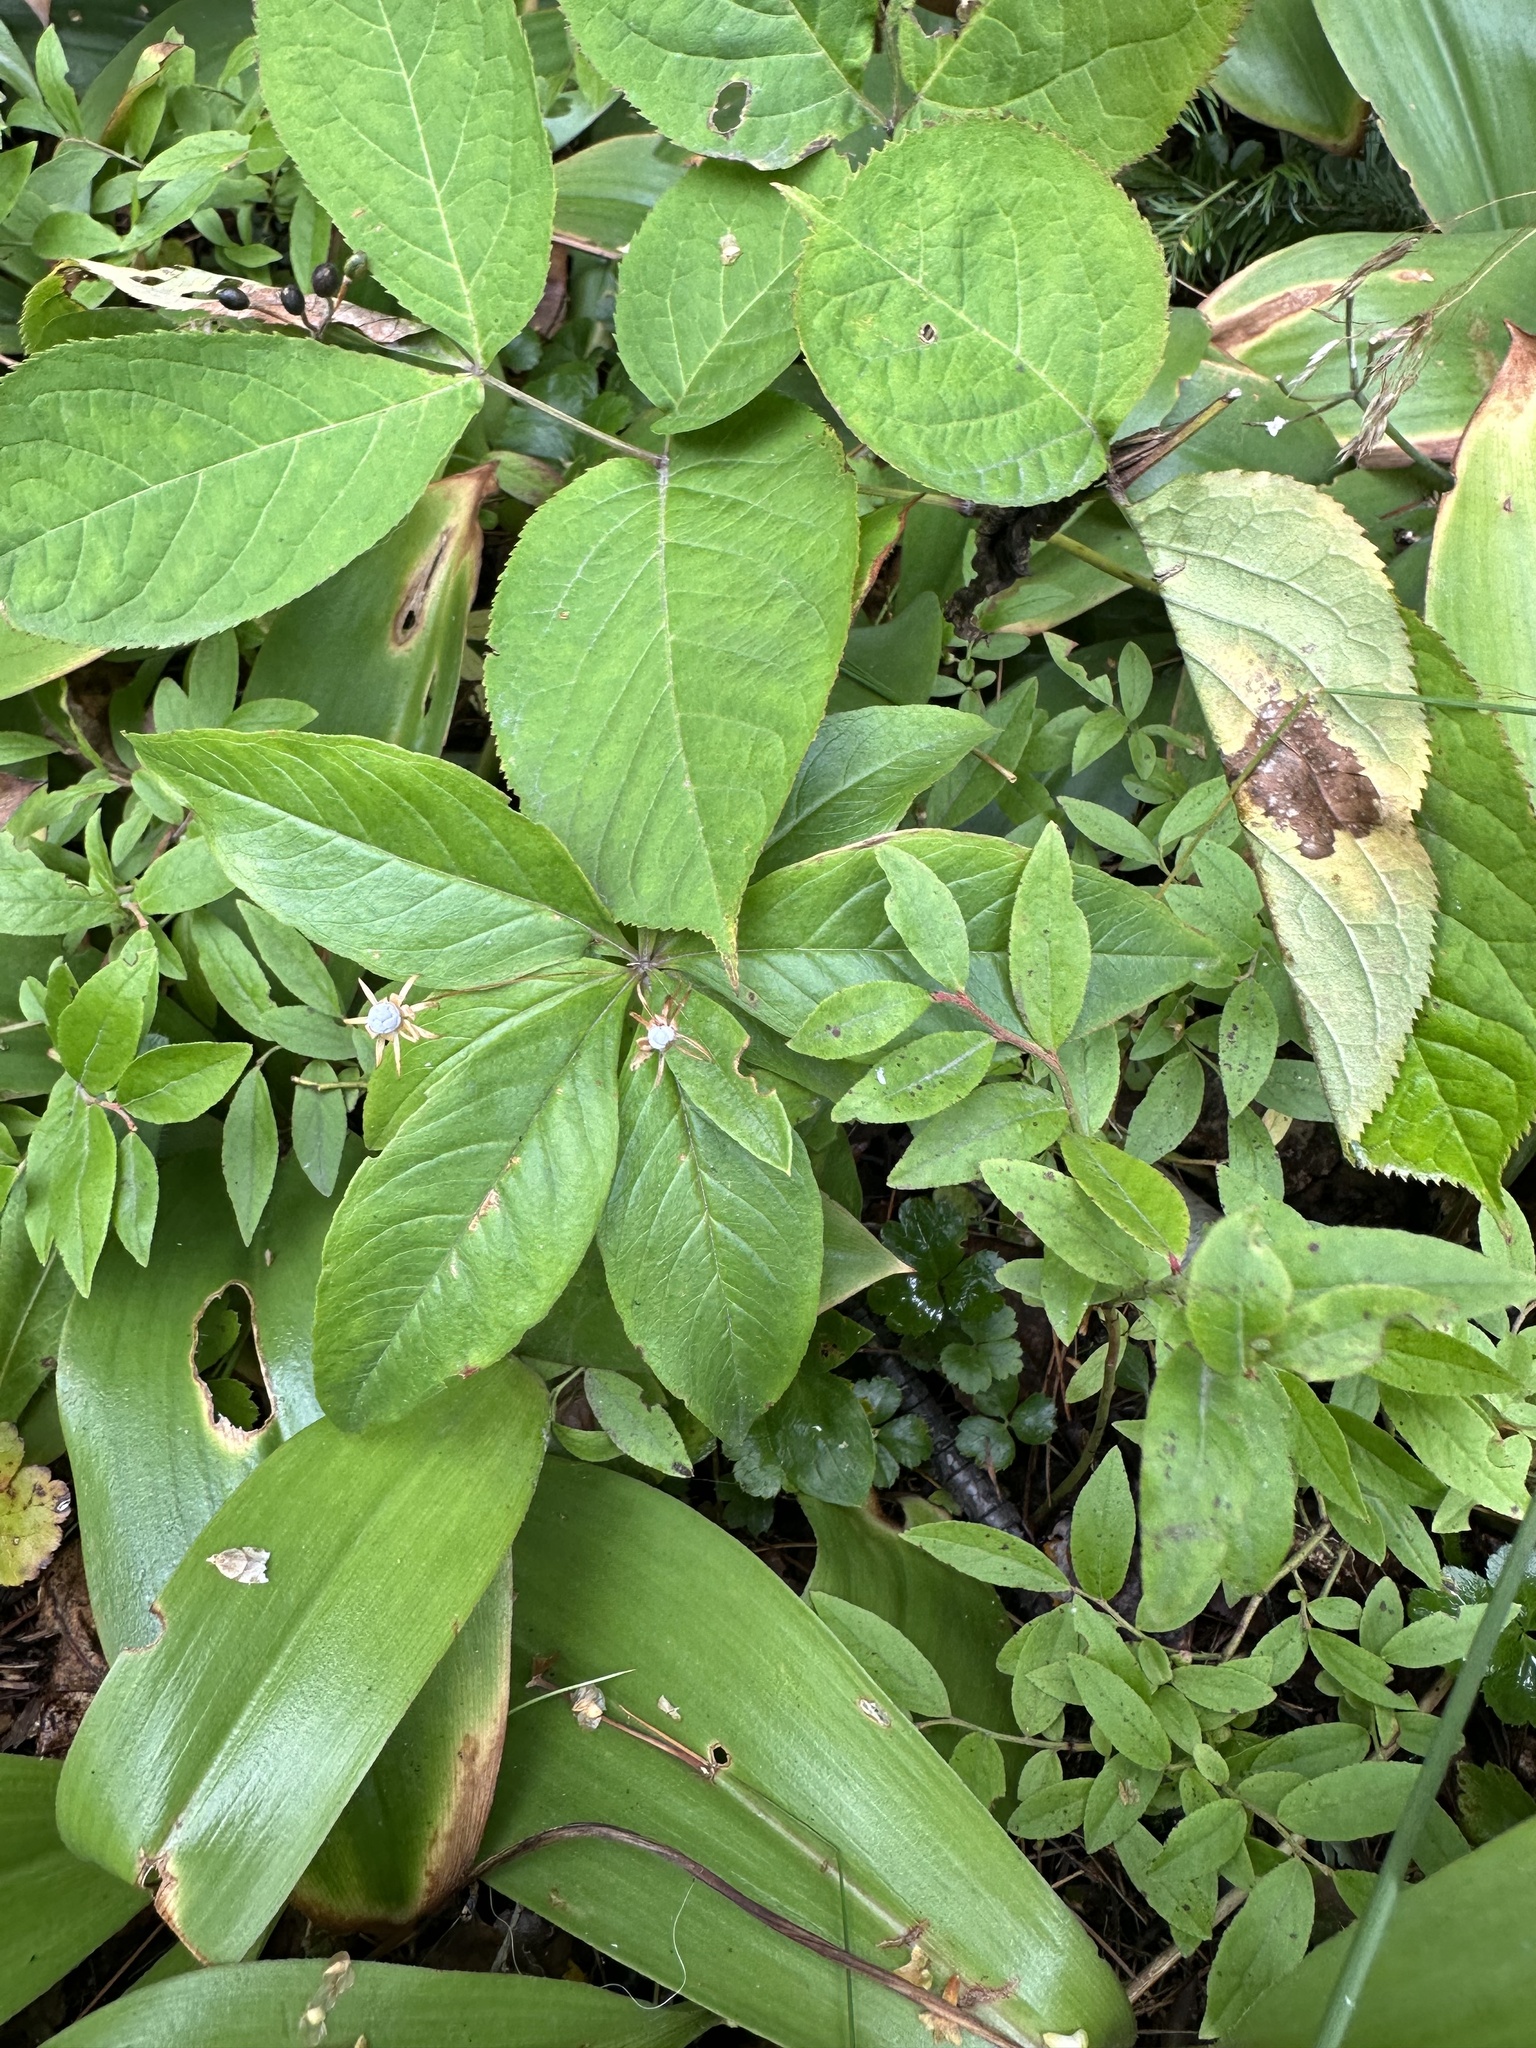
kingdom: Plantae
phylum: Tracheophyta
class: Magnoliopsida
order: Ericales
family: Primulaceae
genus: Lysimachia
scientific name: Lysimachia borealis
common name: American starflower
